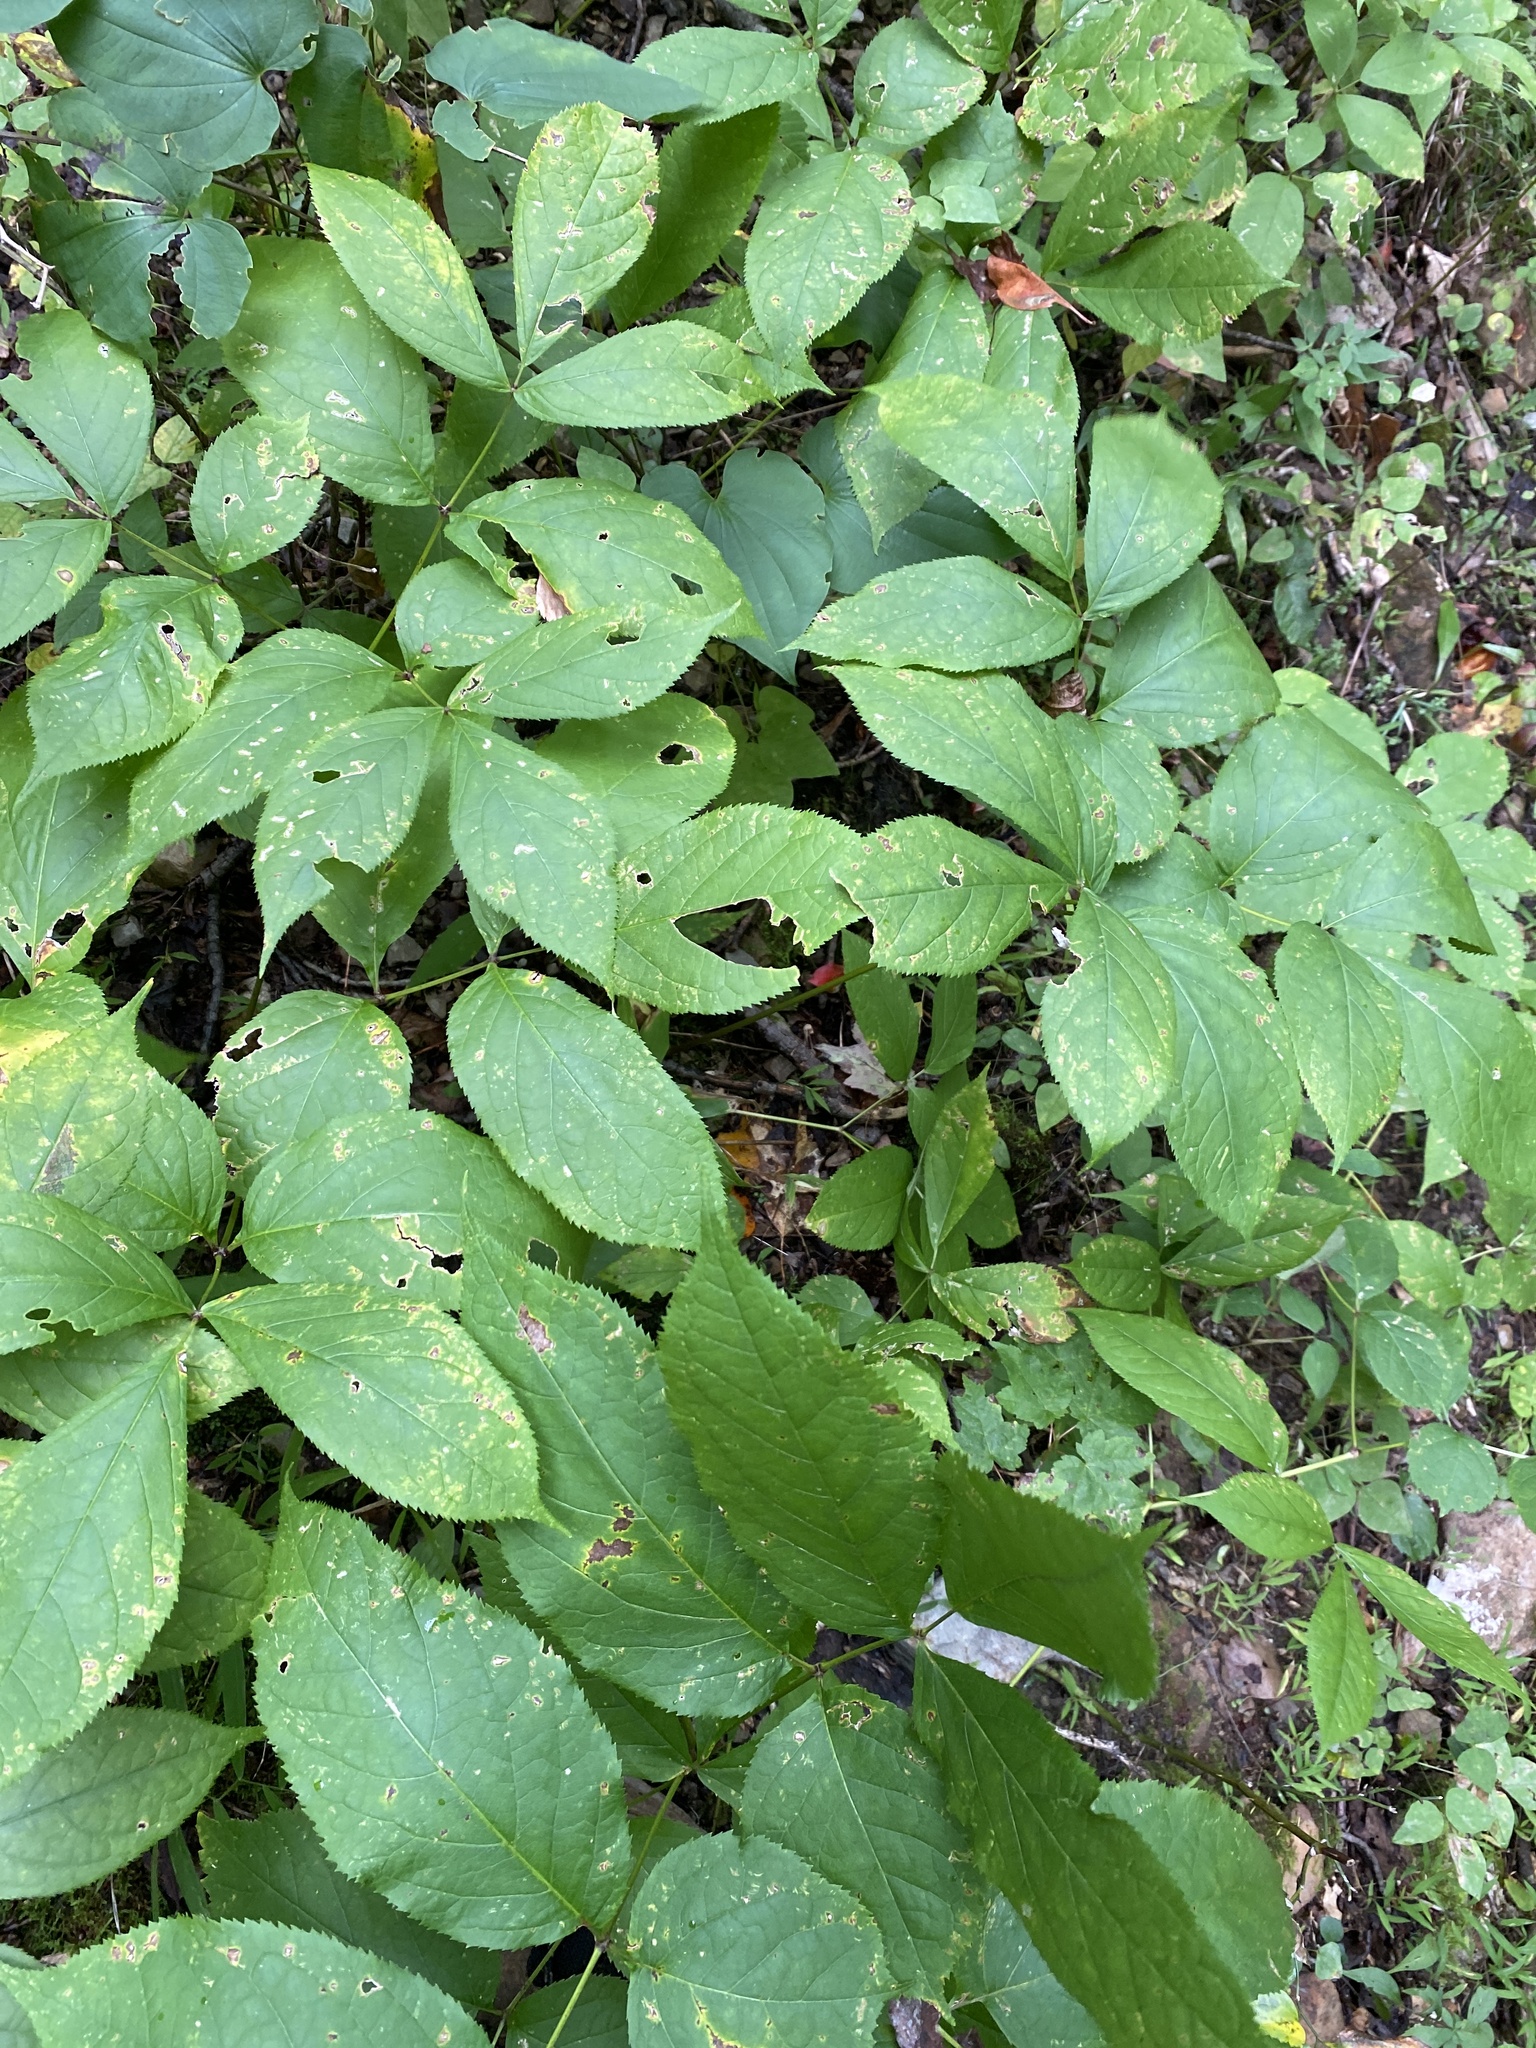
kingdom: Plantae
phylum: Tracheophyta
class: Magnoliopsida
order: Apiales
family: Araliaceae
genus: Aralia
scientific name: Aralia nudicaulis
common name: Wild sarsaparilla
